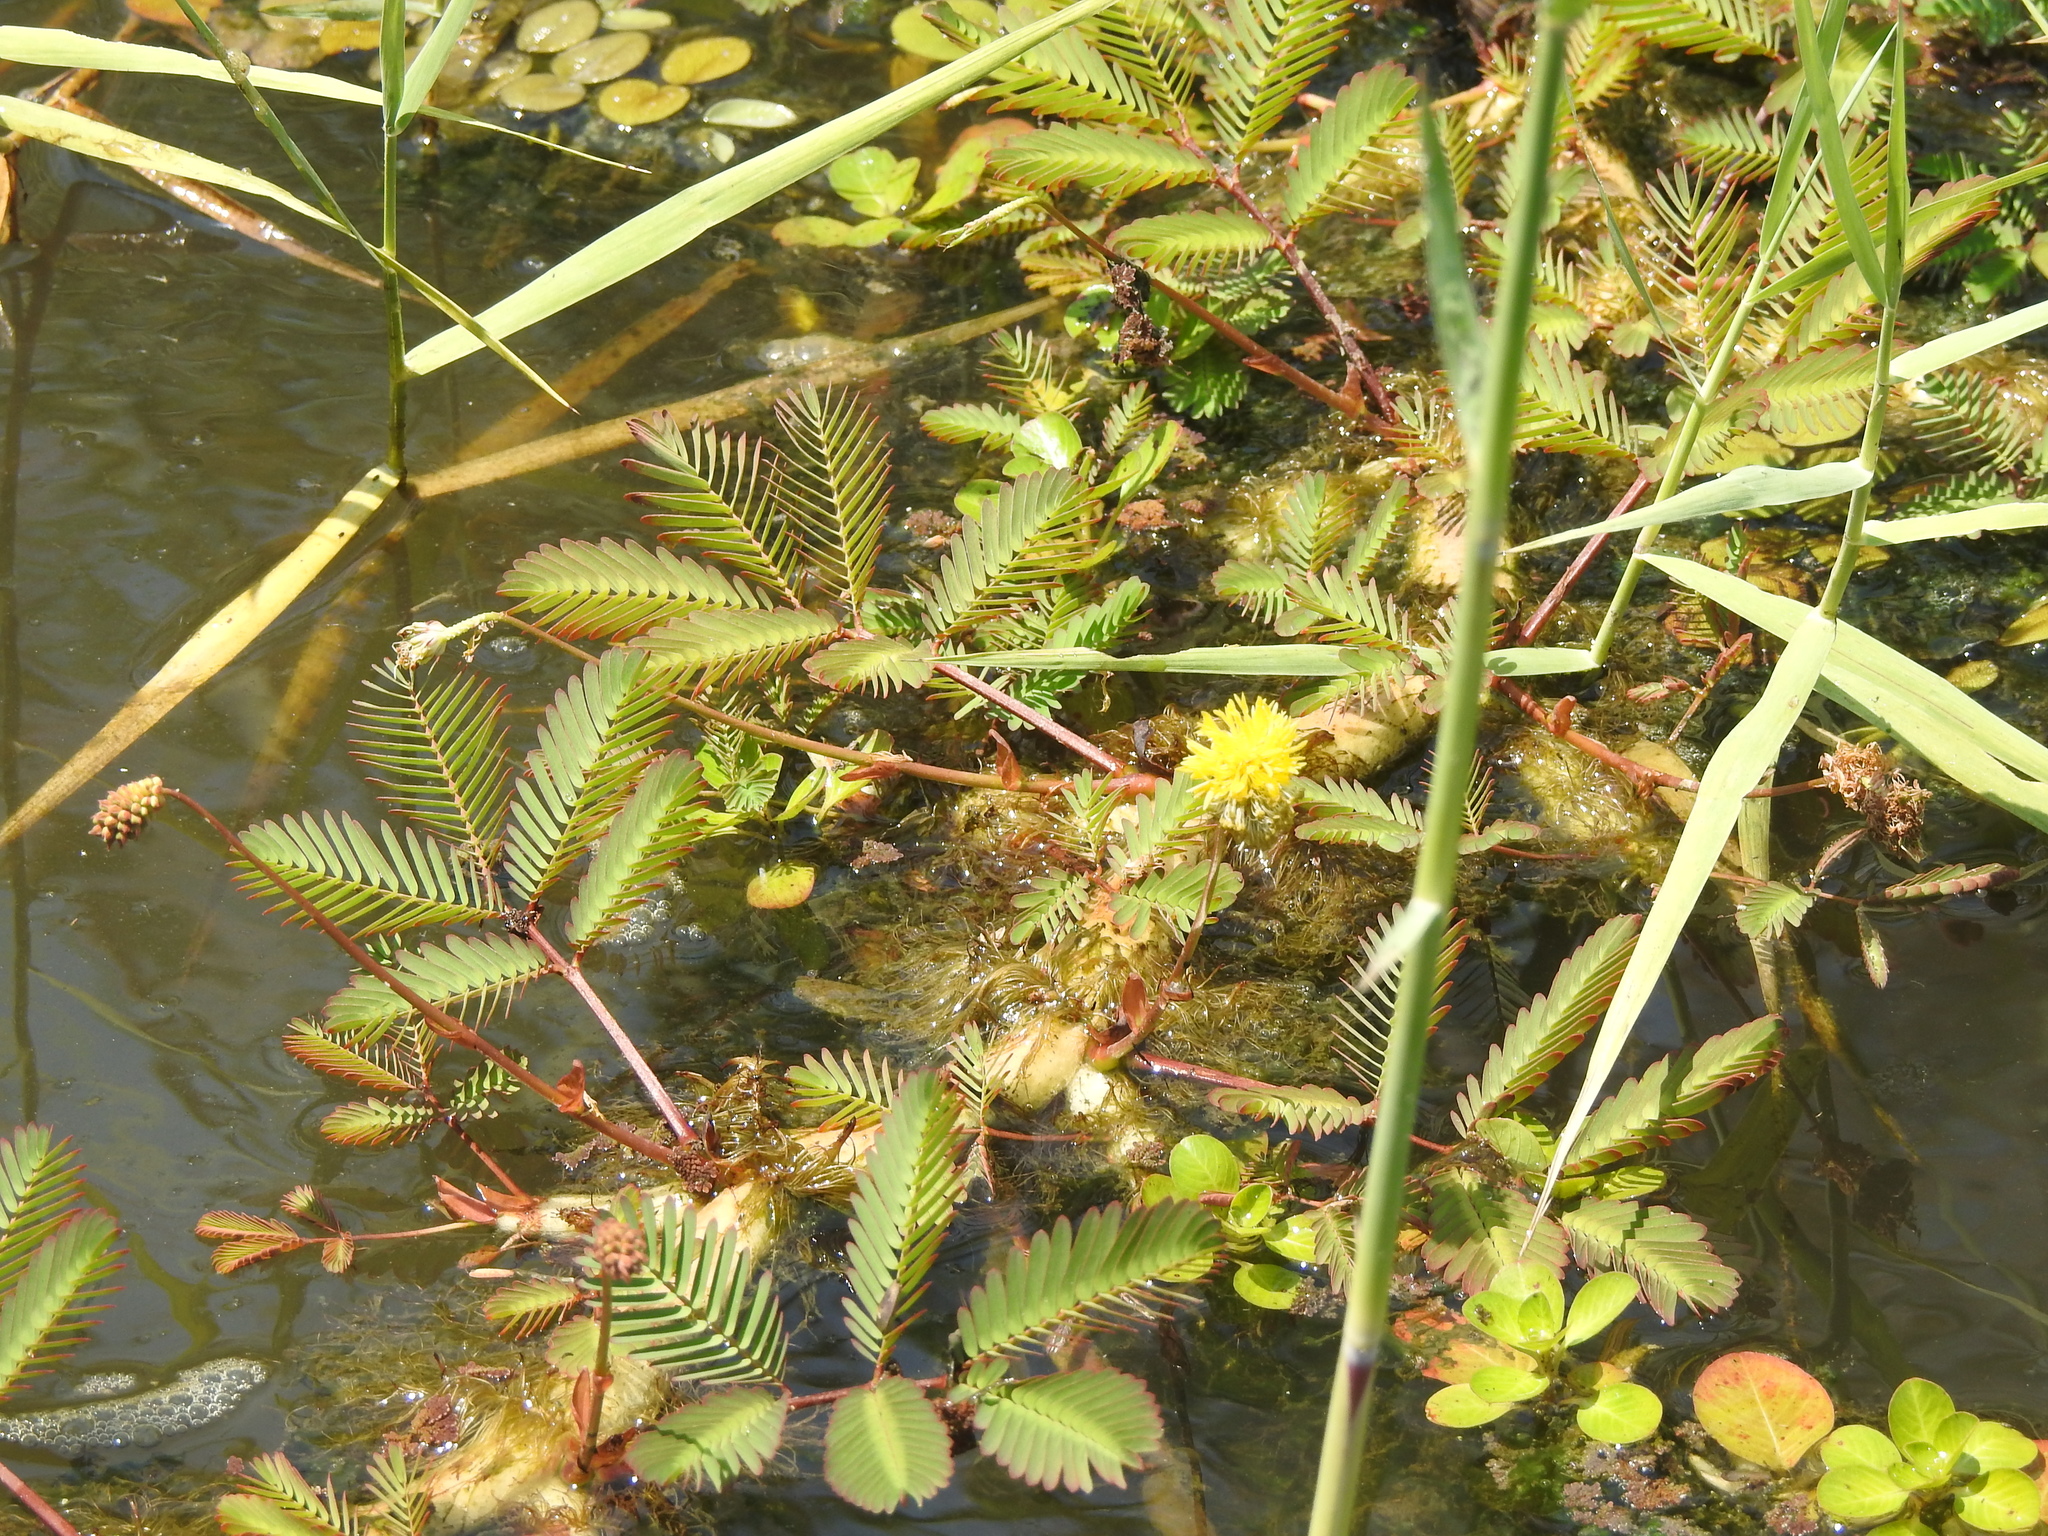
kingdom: Plantae
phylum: Tracheophyta
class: Magnoliopsida
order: Fabales
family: Fabaceae
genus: Neptunia
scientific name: Neptunia plena
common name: Dead and awake
